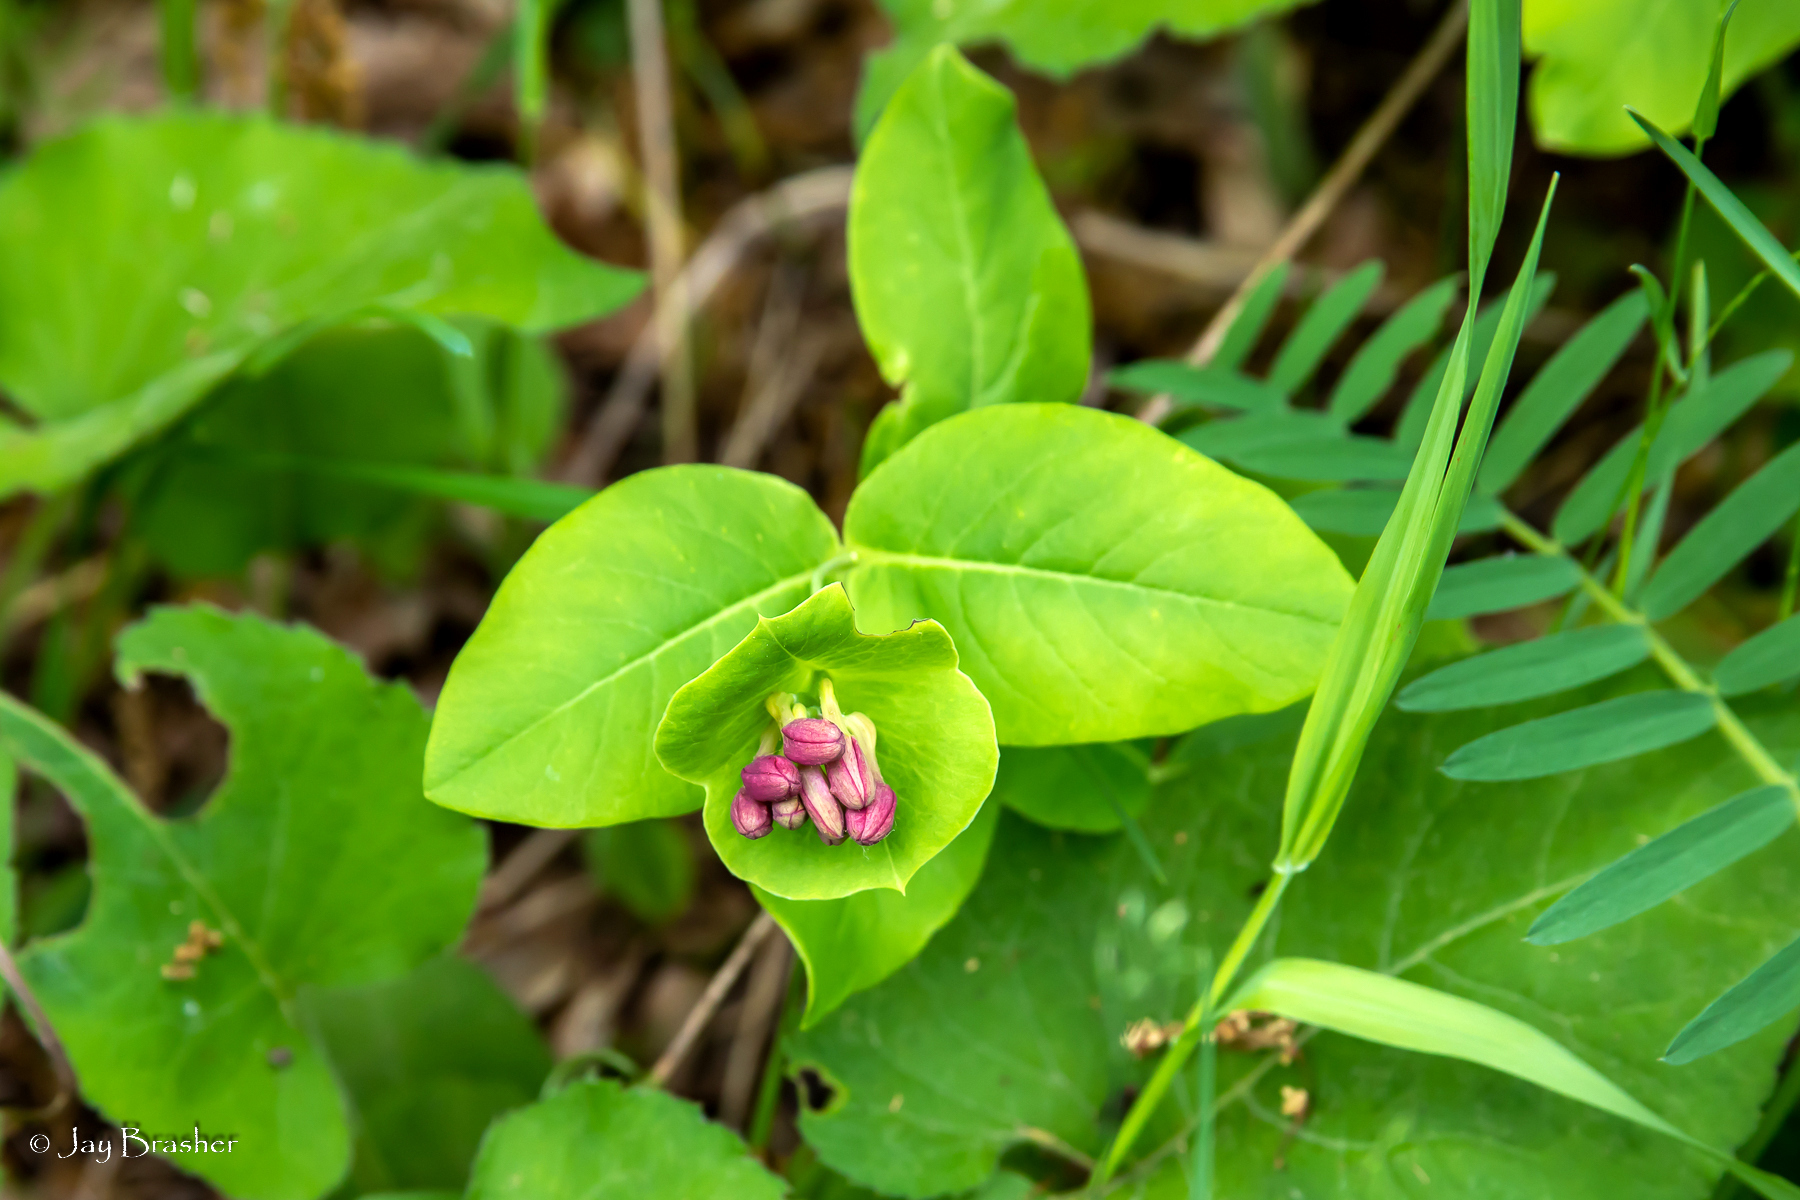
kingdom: Plantae
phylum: Tracheophyta
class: Magnoliopsida
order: Dipsacales
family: Caprifoliaceae
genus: Lonicera
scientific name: Lonicera dioica
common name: Limber honeysuckle
